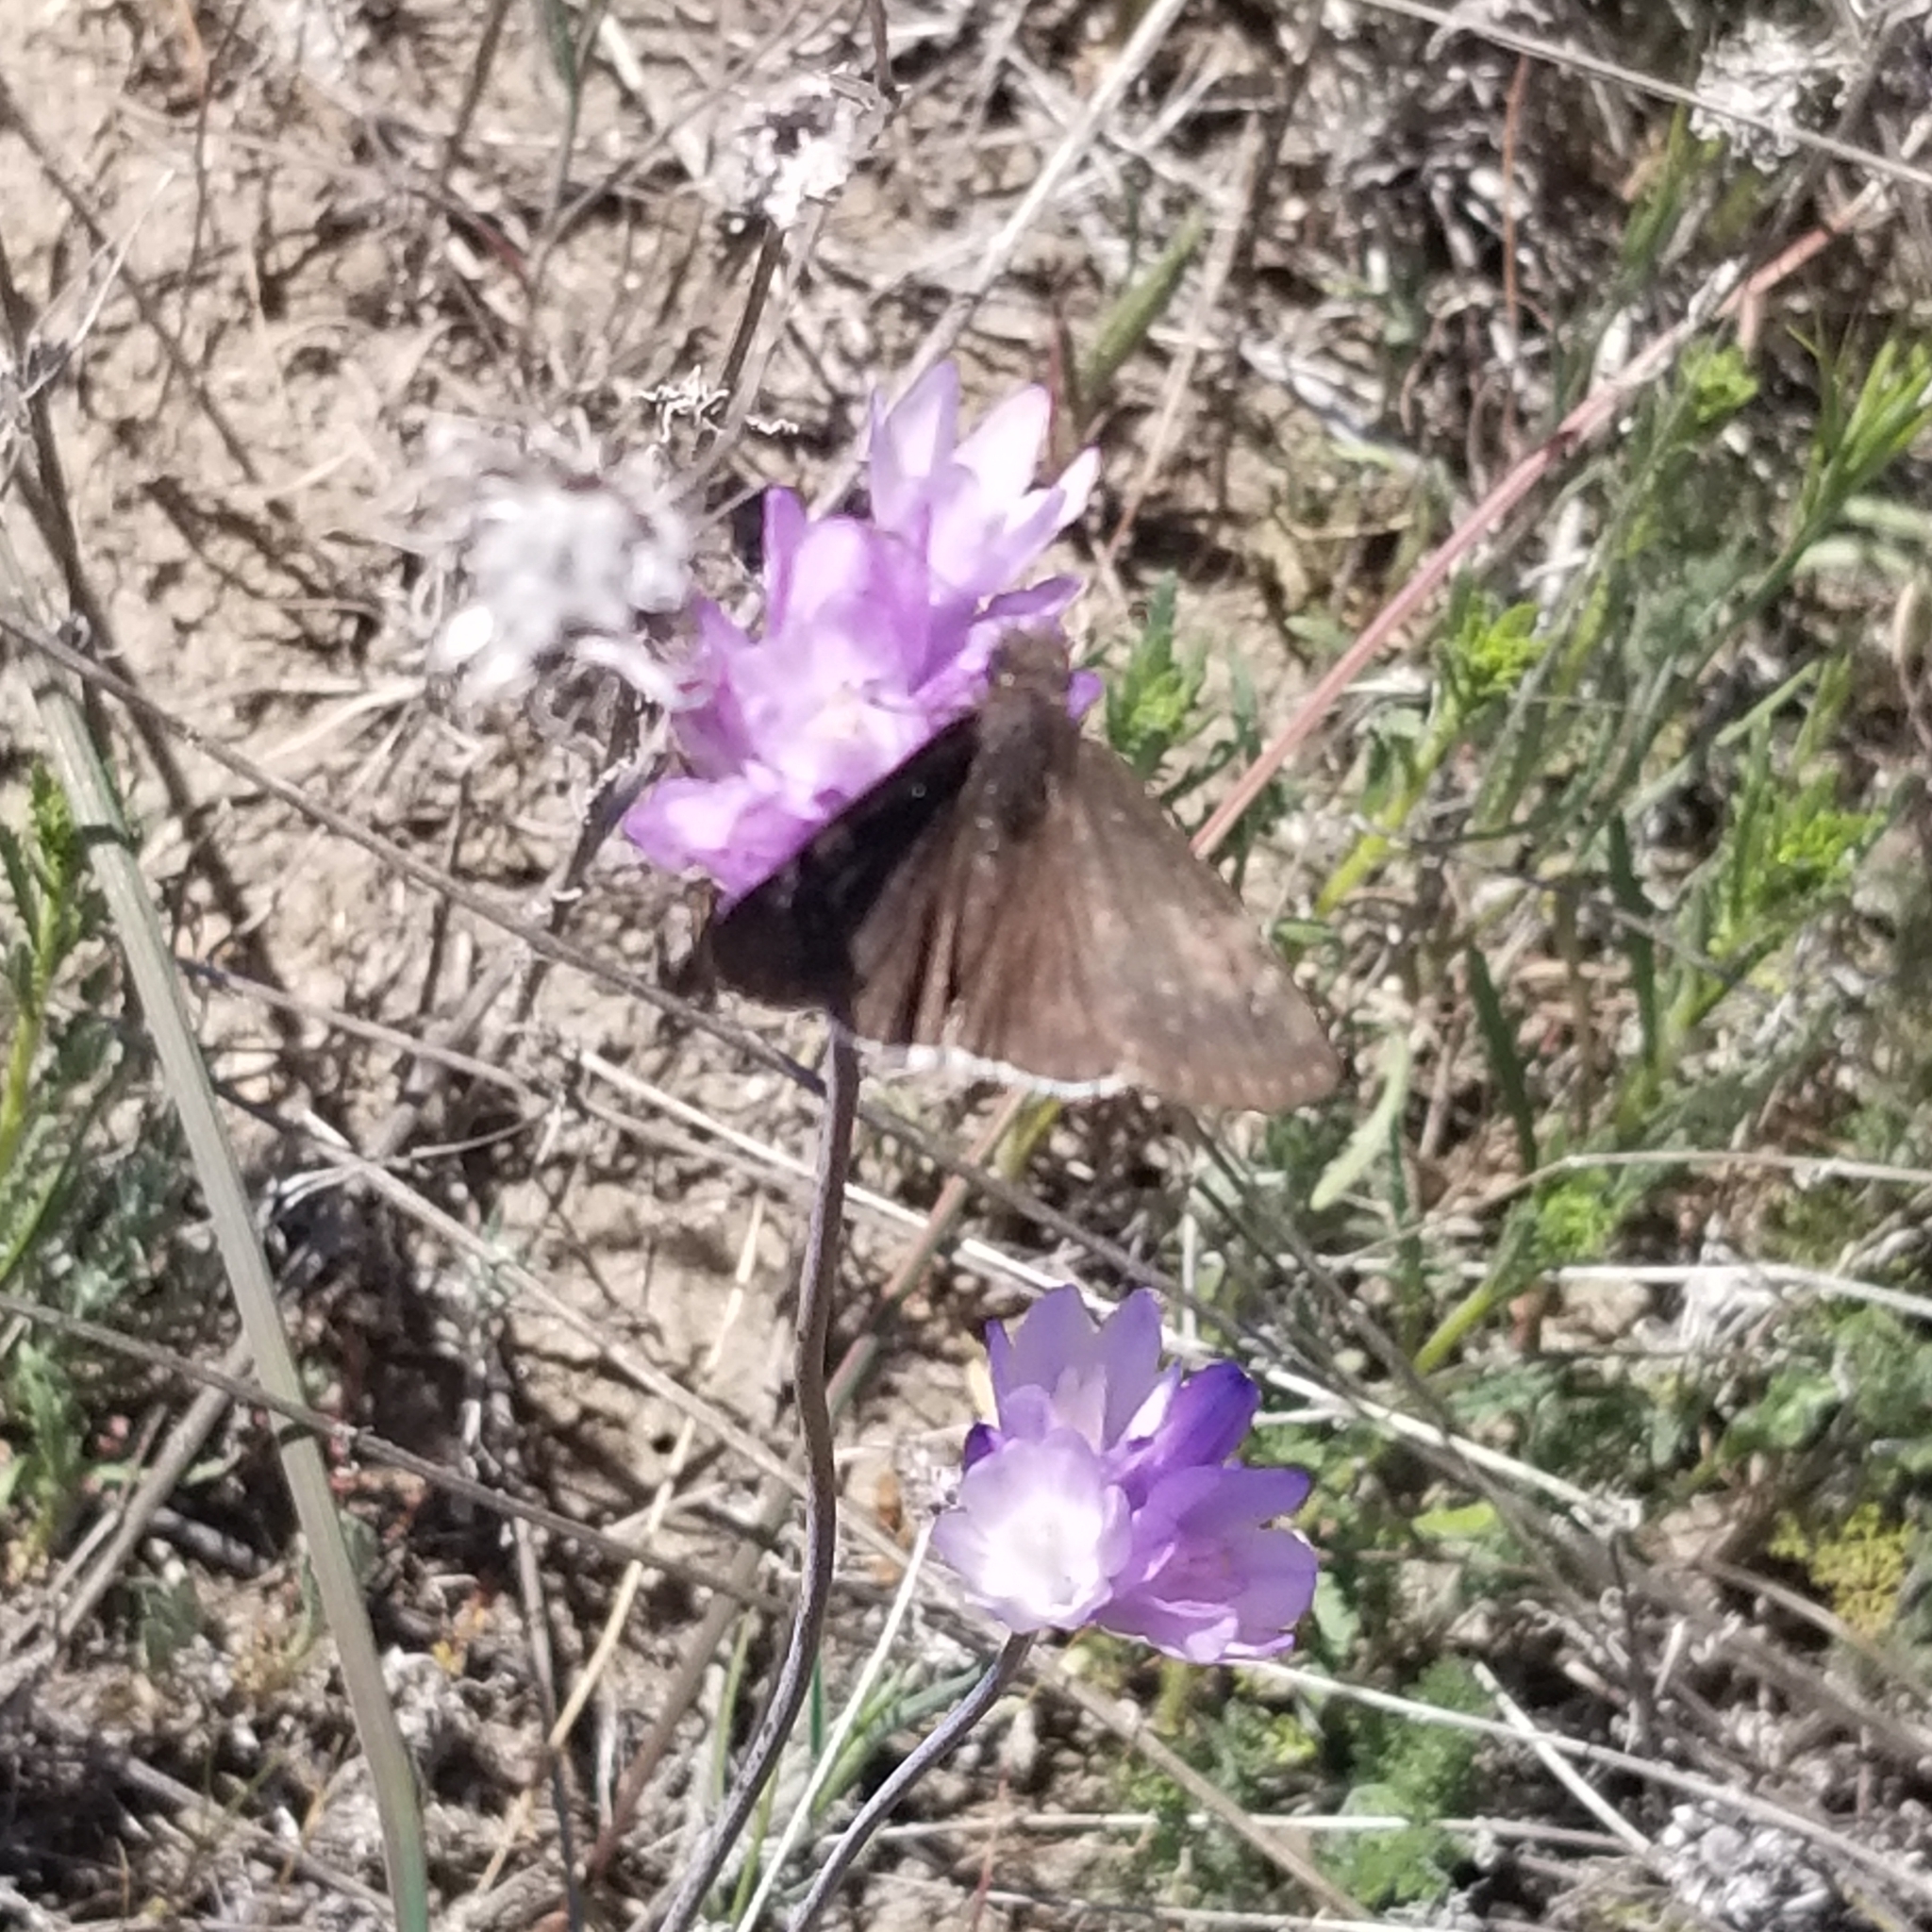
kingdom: Animalia
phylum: Arthropoda
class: Insecta
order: Lepidoptera
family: Hesperiidae
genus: Erynnis
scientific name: Erynnis funeralis
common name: Funereal duskywing
